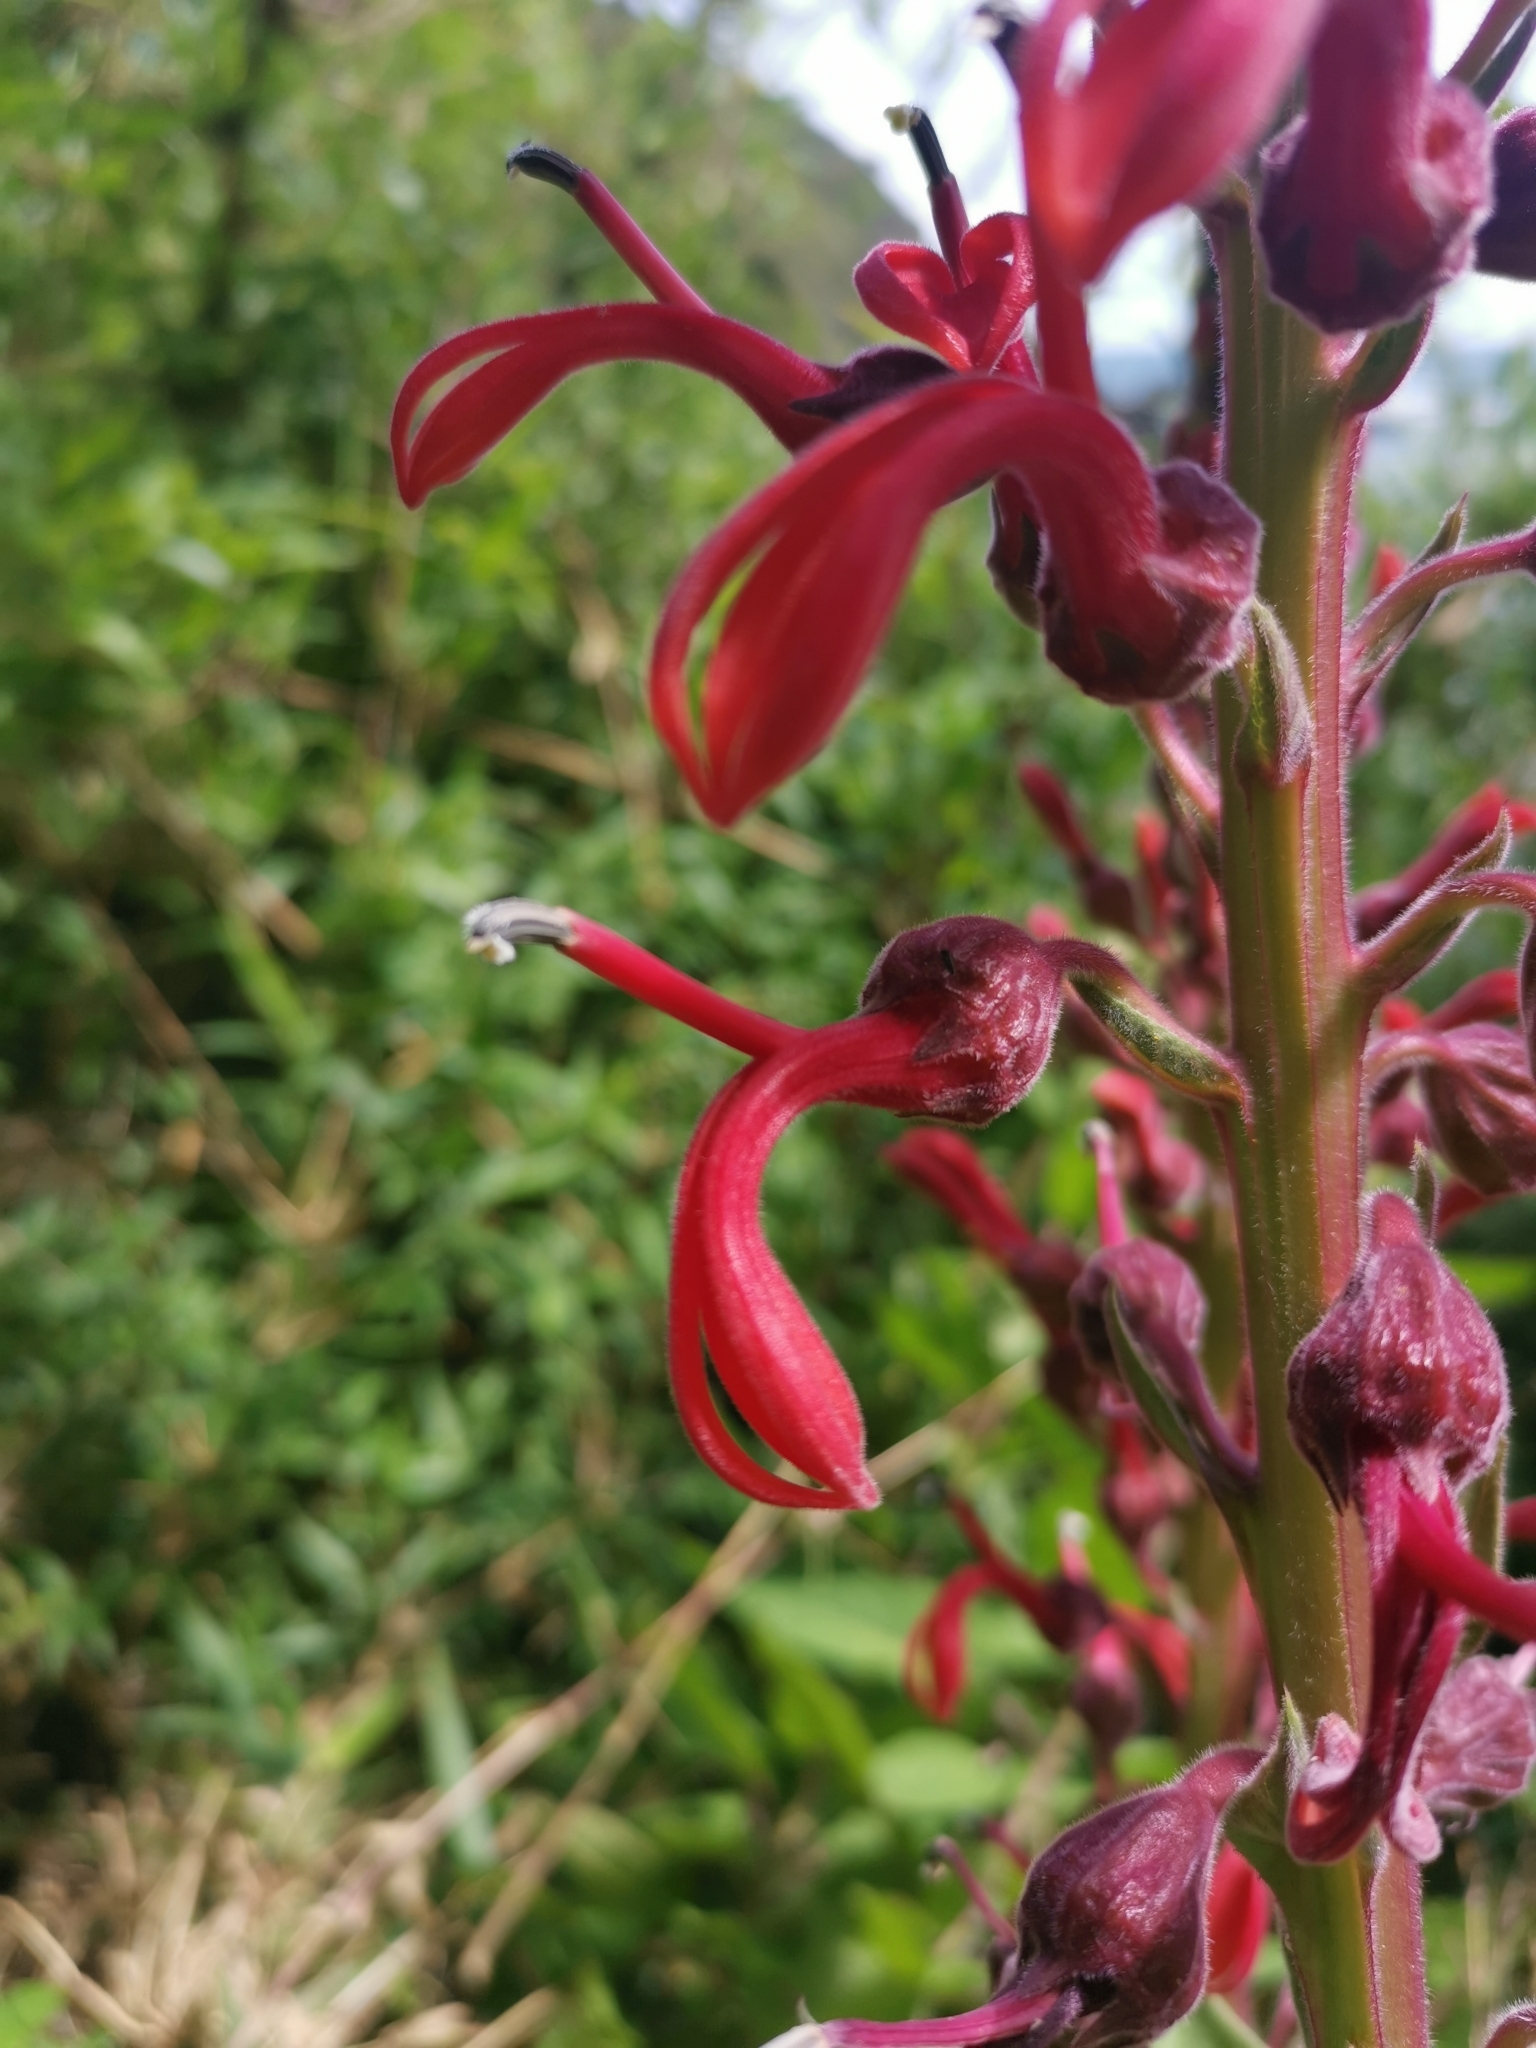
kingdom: Plantae
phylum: Tracheophyta
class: Magnoliopsida
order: Asterales
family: Campanulaceae
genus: Lobelia
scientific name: Lobelia tupa
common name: Devil's-tobacco
